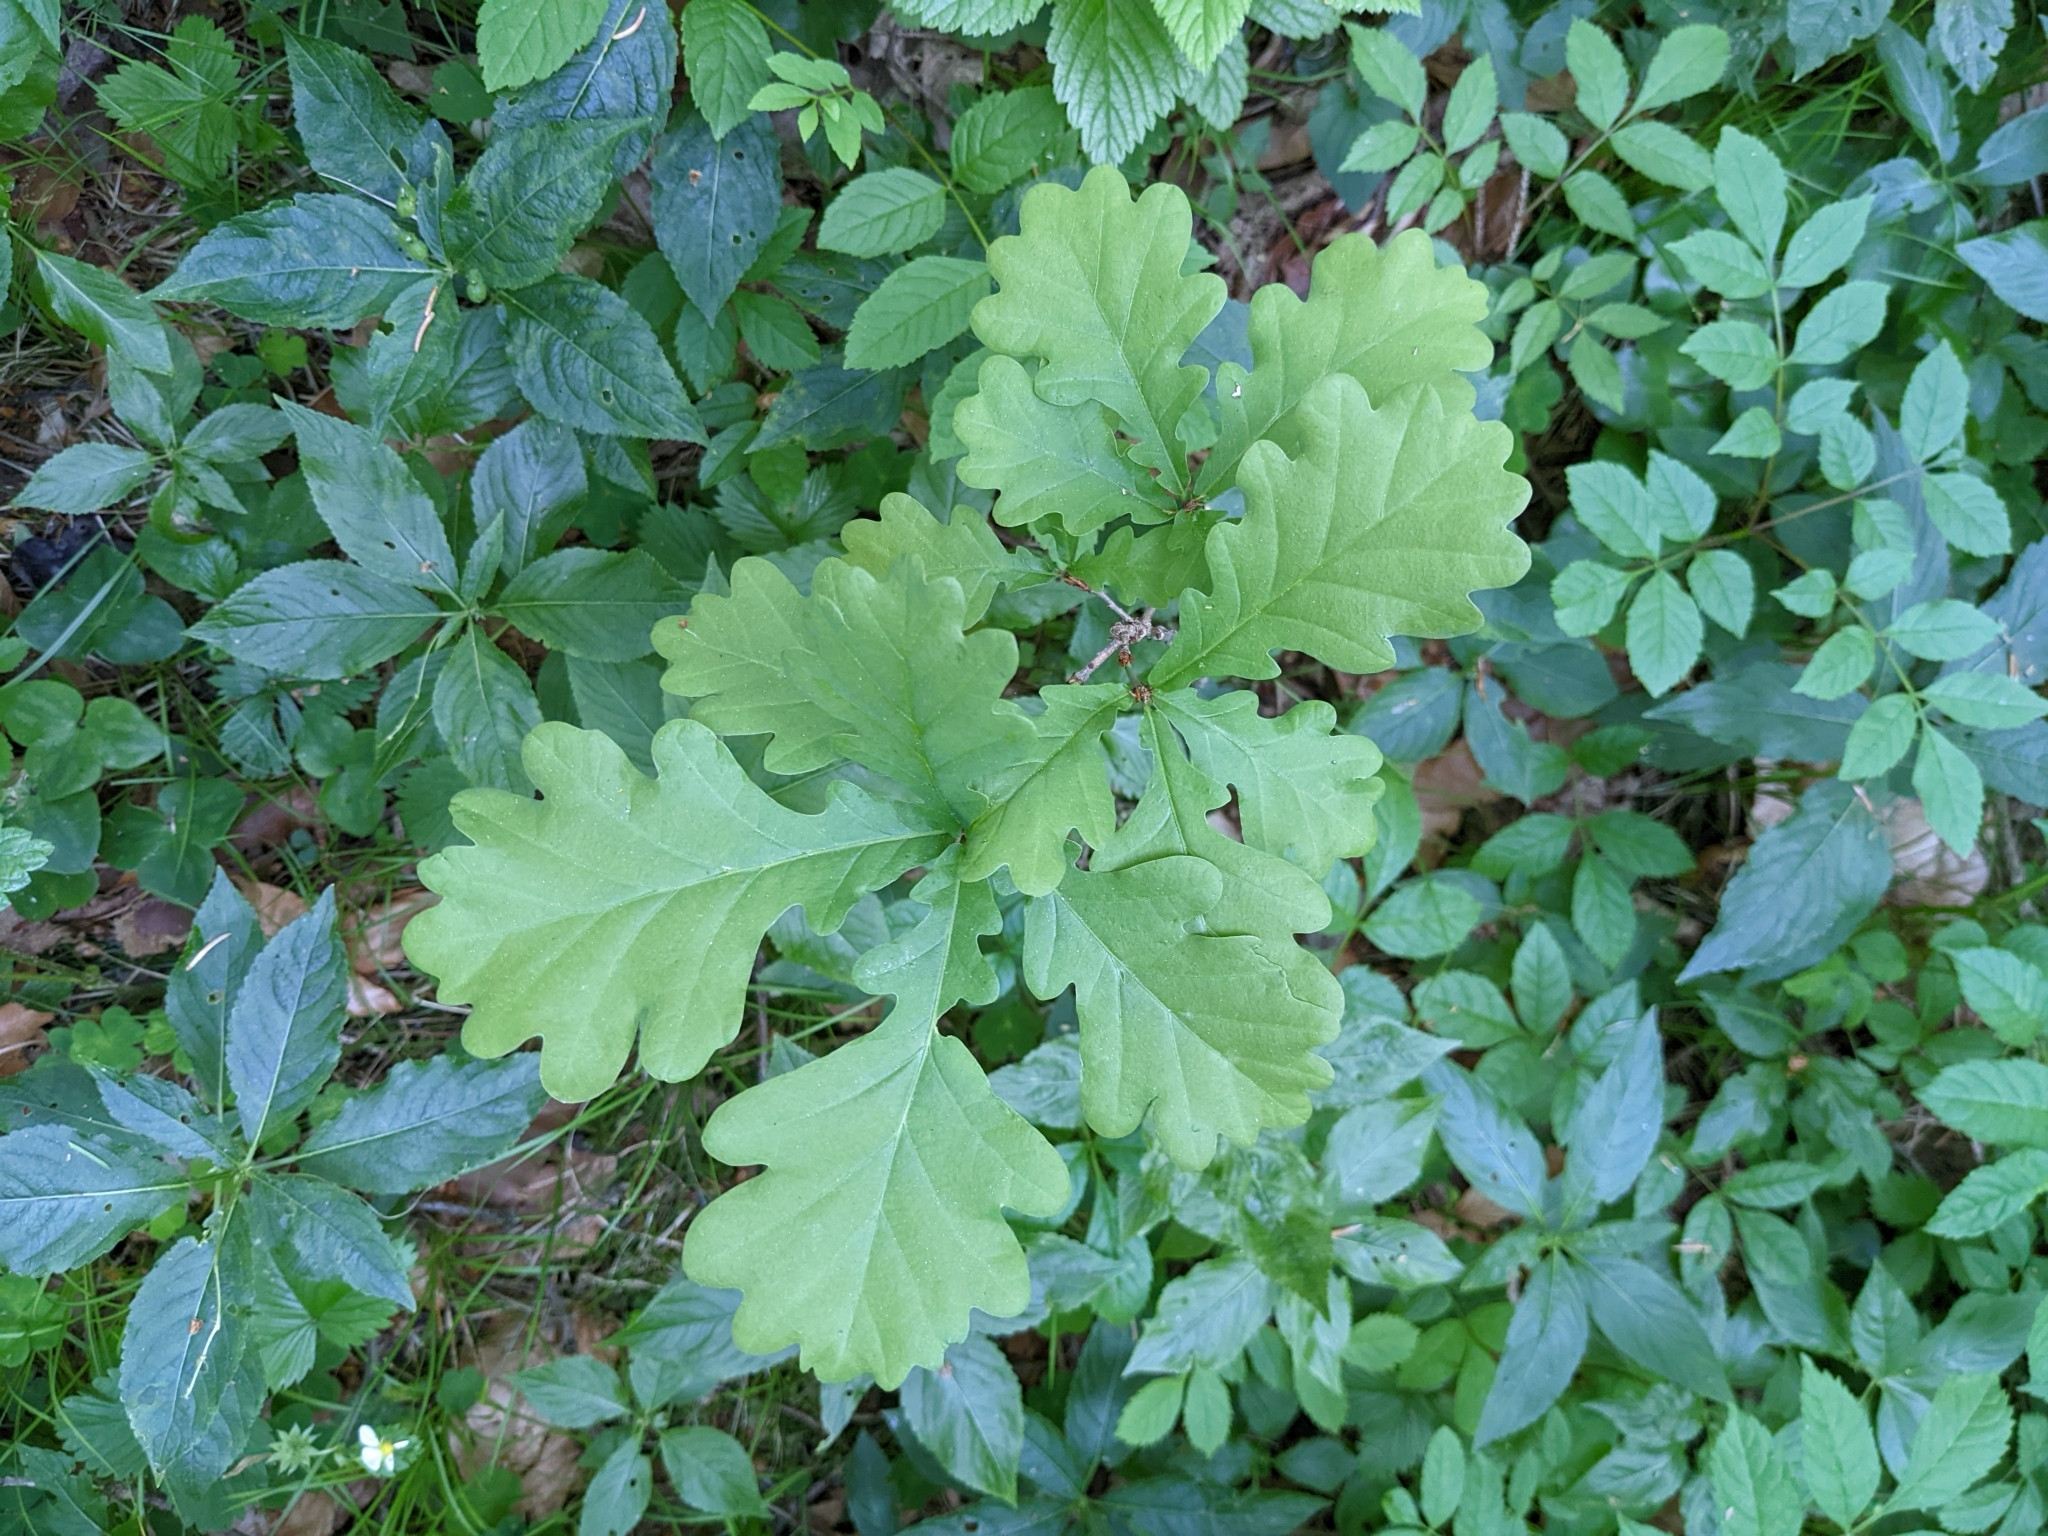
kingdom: Plantae
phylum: Tracheophyta
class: Magnoliopsida
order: Fagales
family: Fagaceae
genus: Quercus
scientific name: Quercus robur
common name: Pedunculate oak
